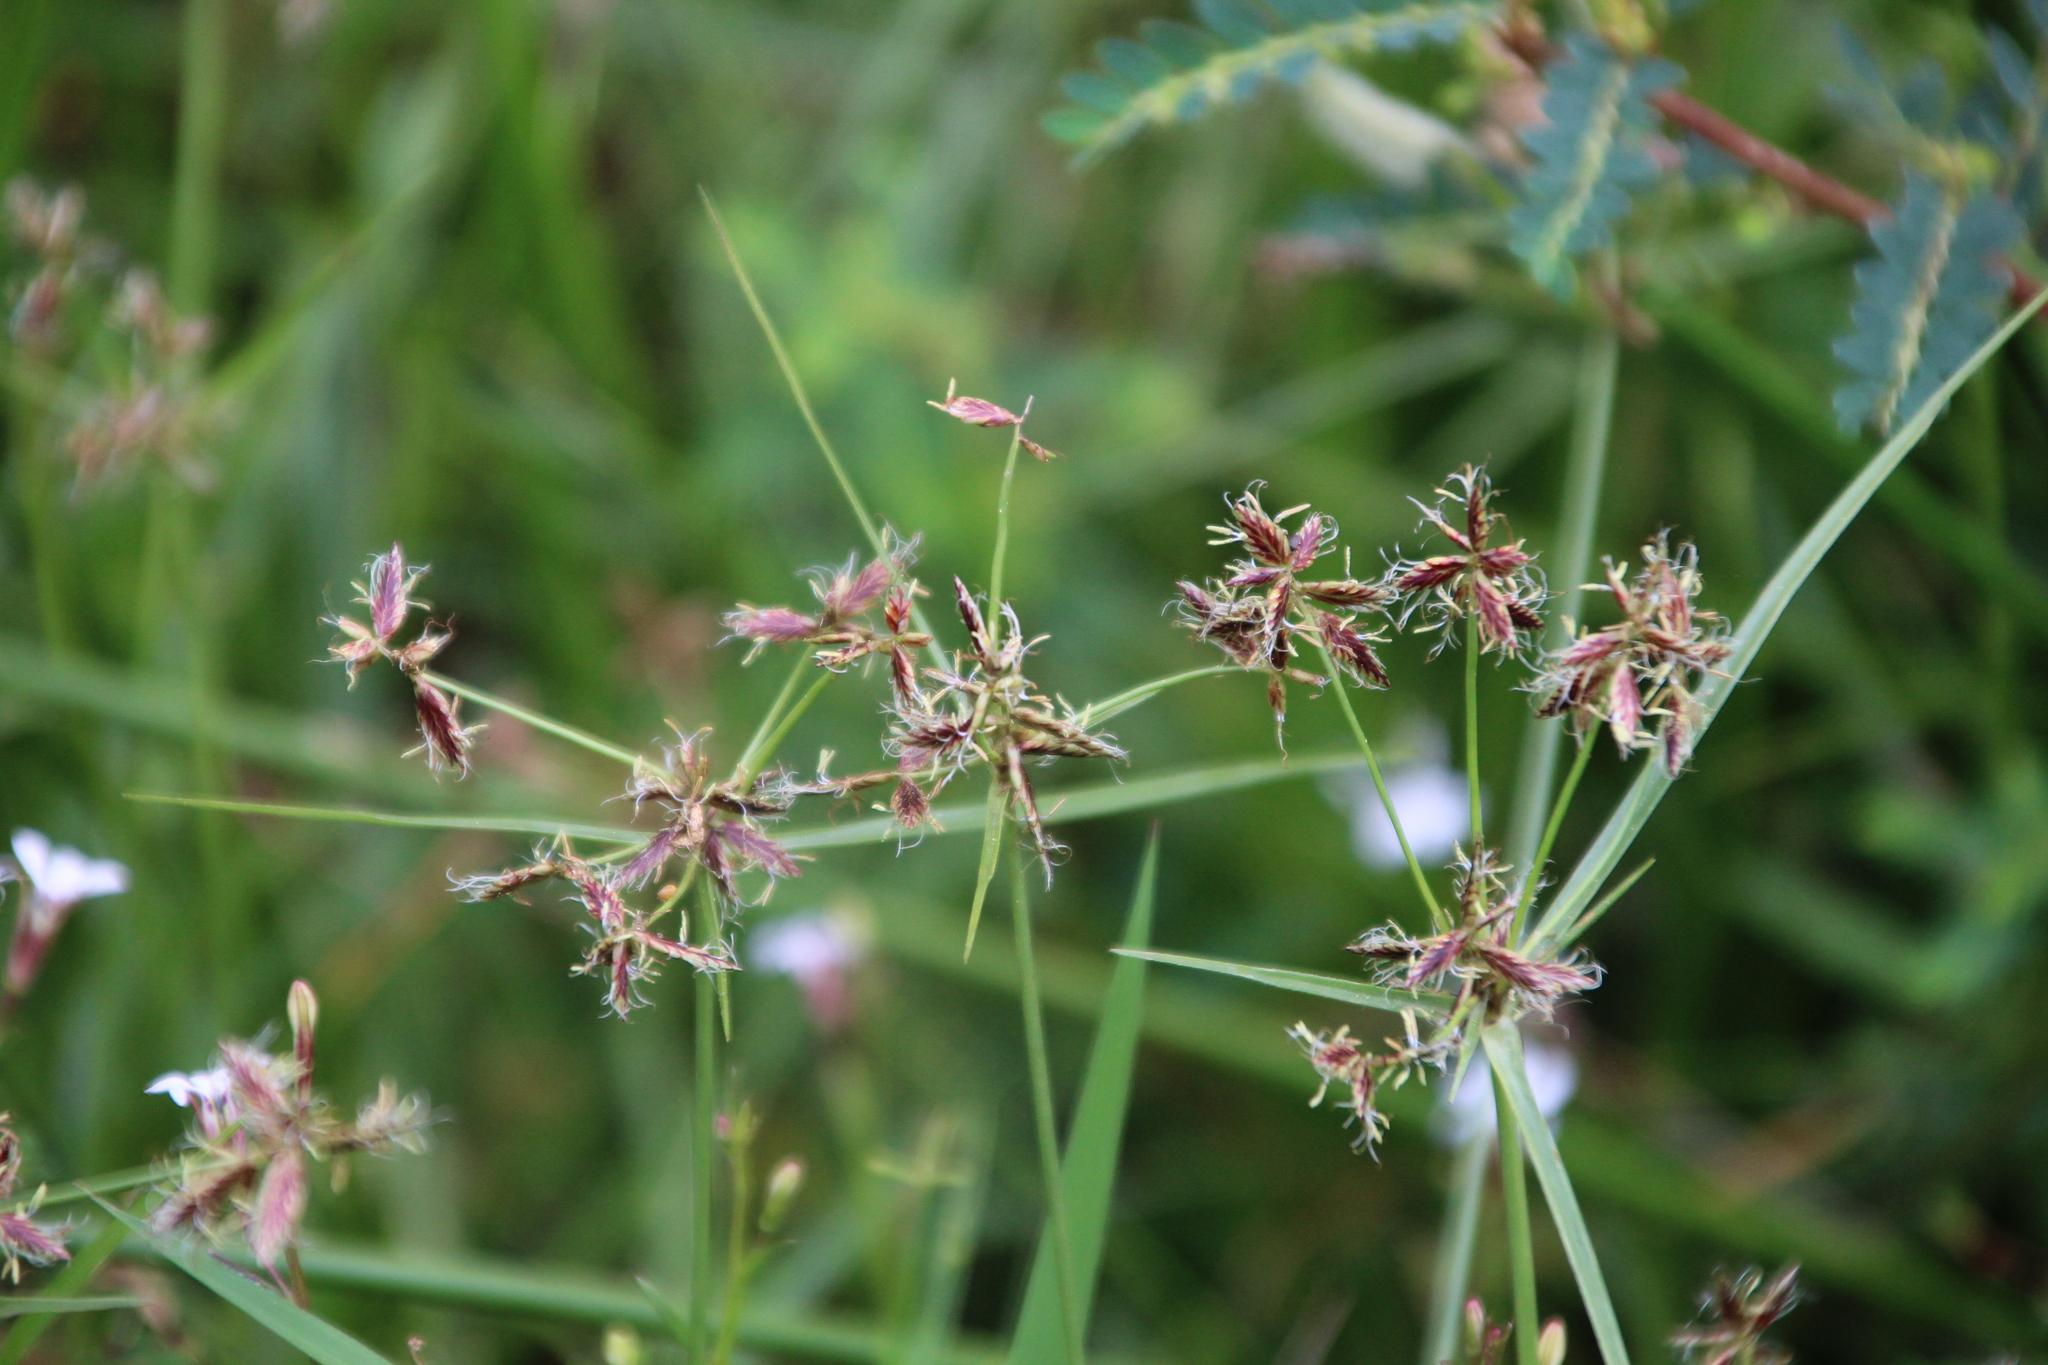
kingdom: Plantae
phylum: Tracheophyta
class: Liliopsida
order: Poales
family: Cyperaceae
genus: Cyperus
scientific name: Cyperus mundii
